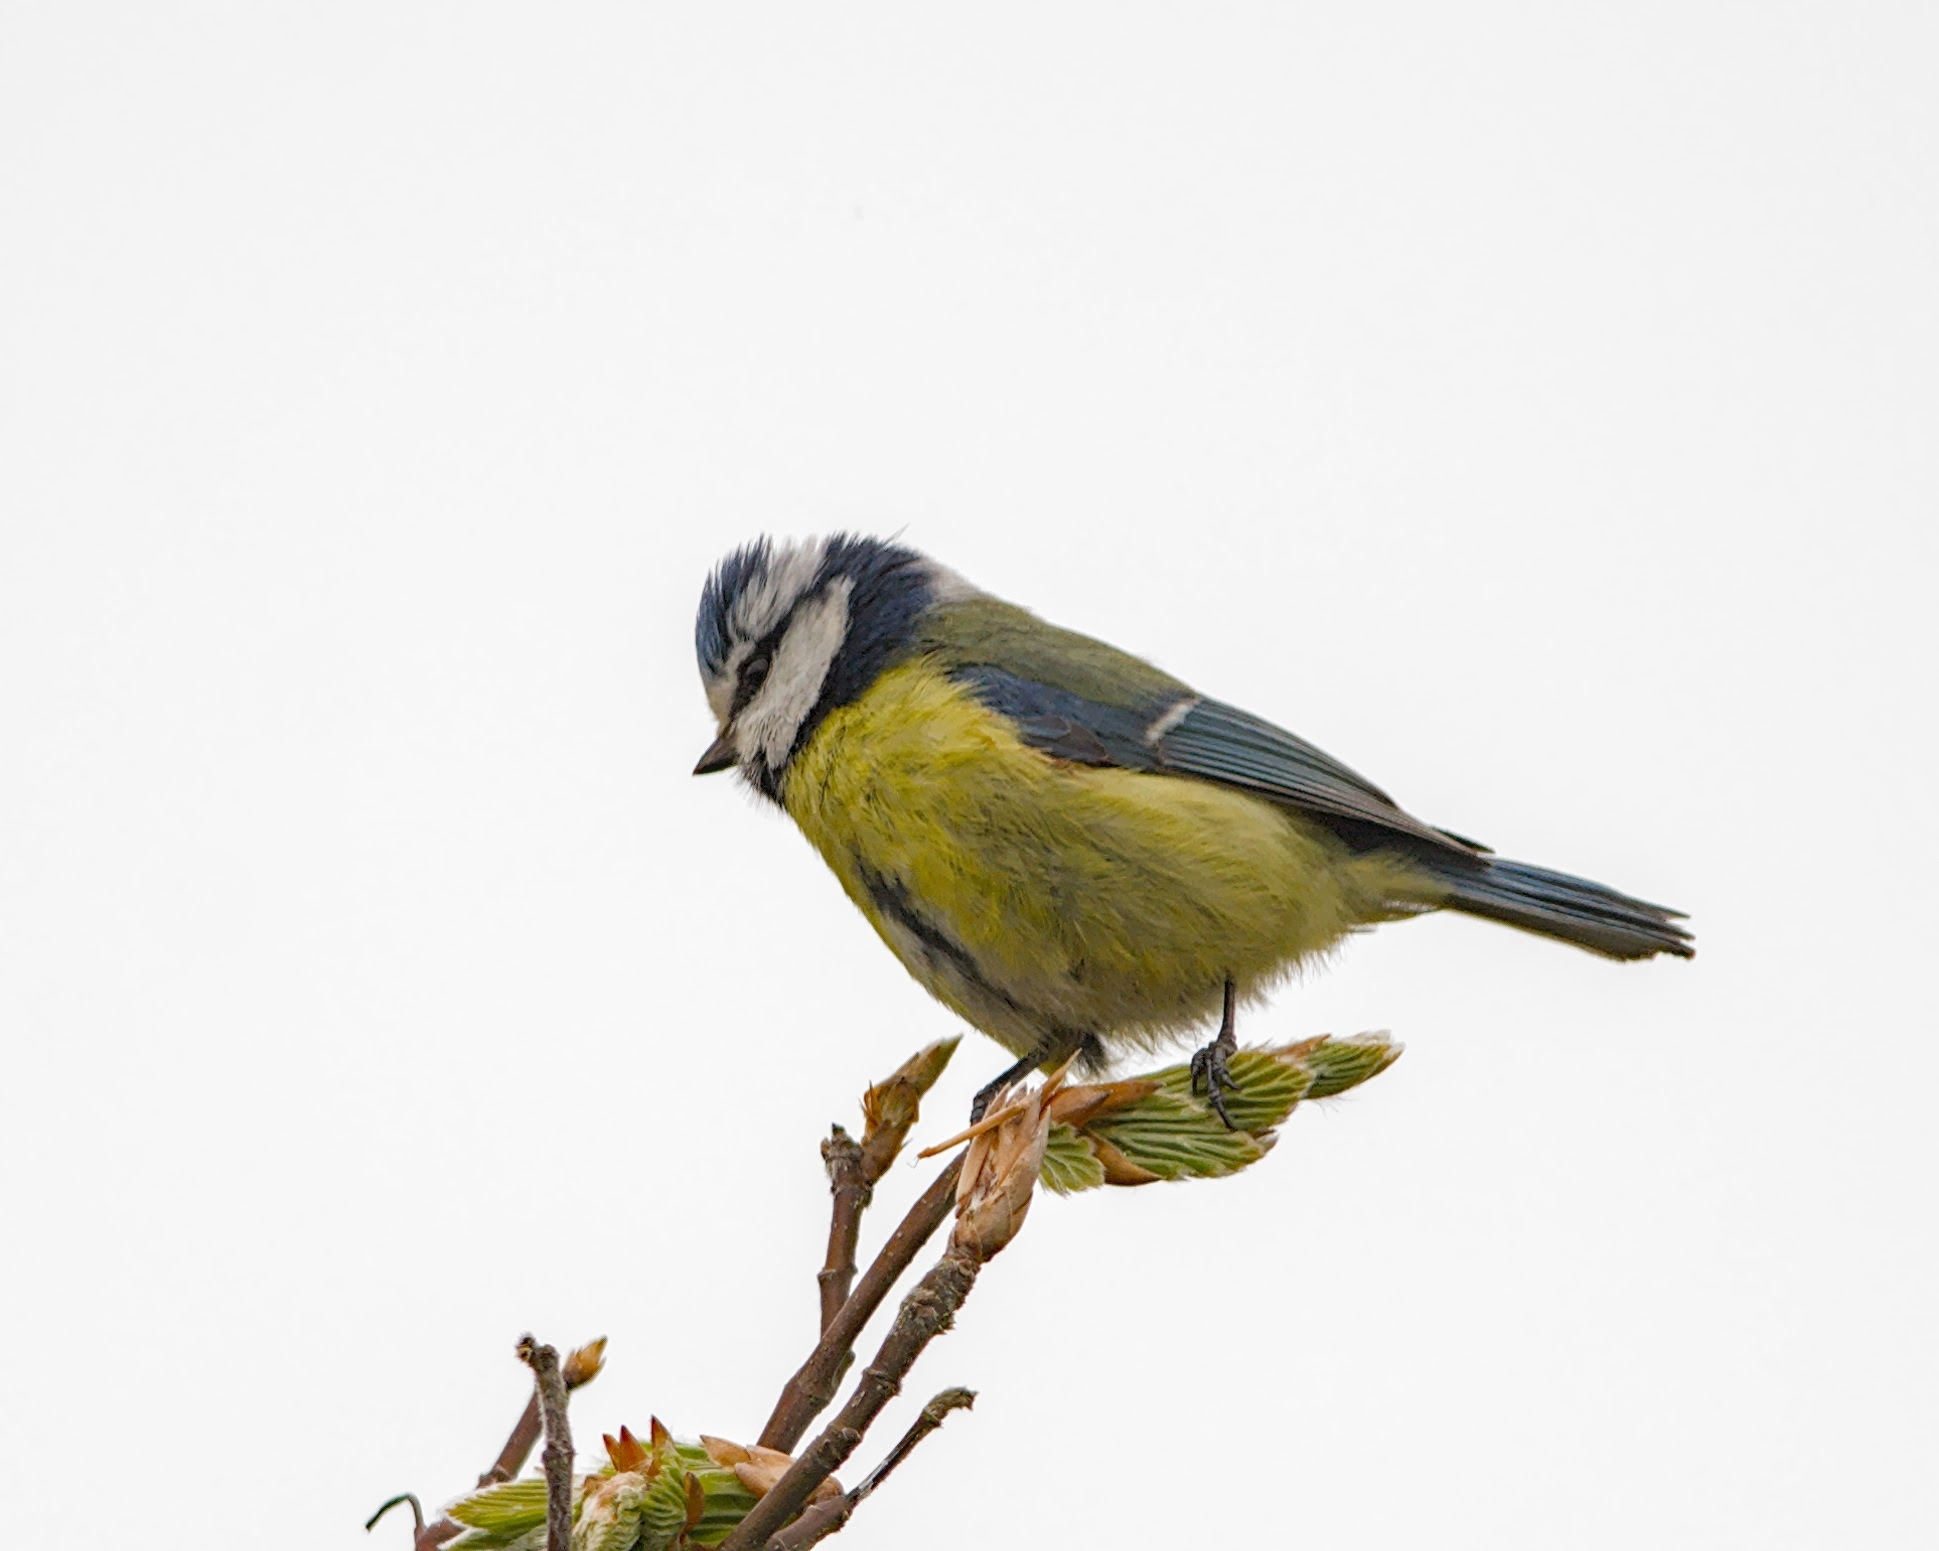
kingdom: Animalia
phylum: Chordata
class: Aves
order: Passeriformes
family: Paridae
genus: Cyanistes
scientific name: Cyanistes caeruleus
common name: Eurasian blue tit
